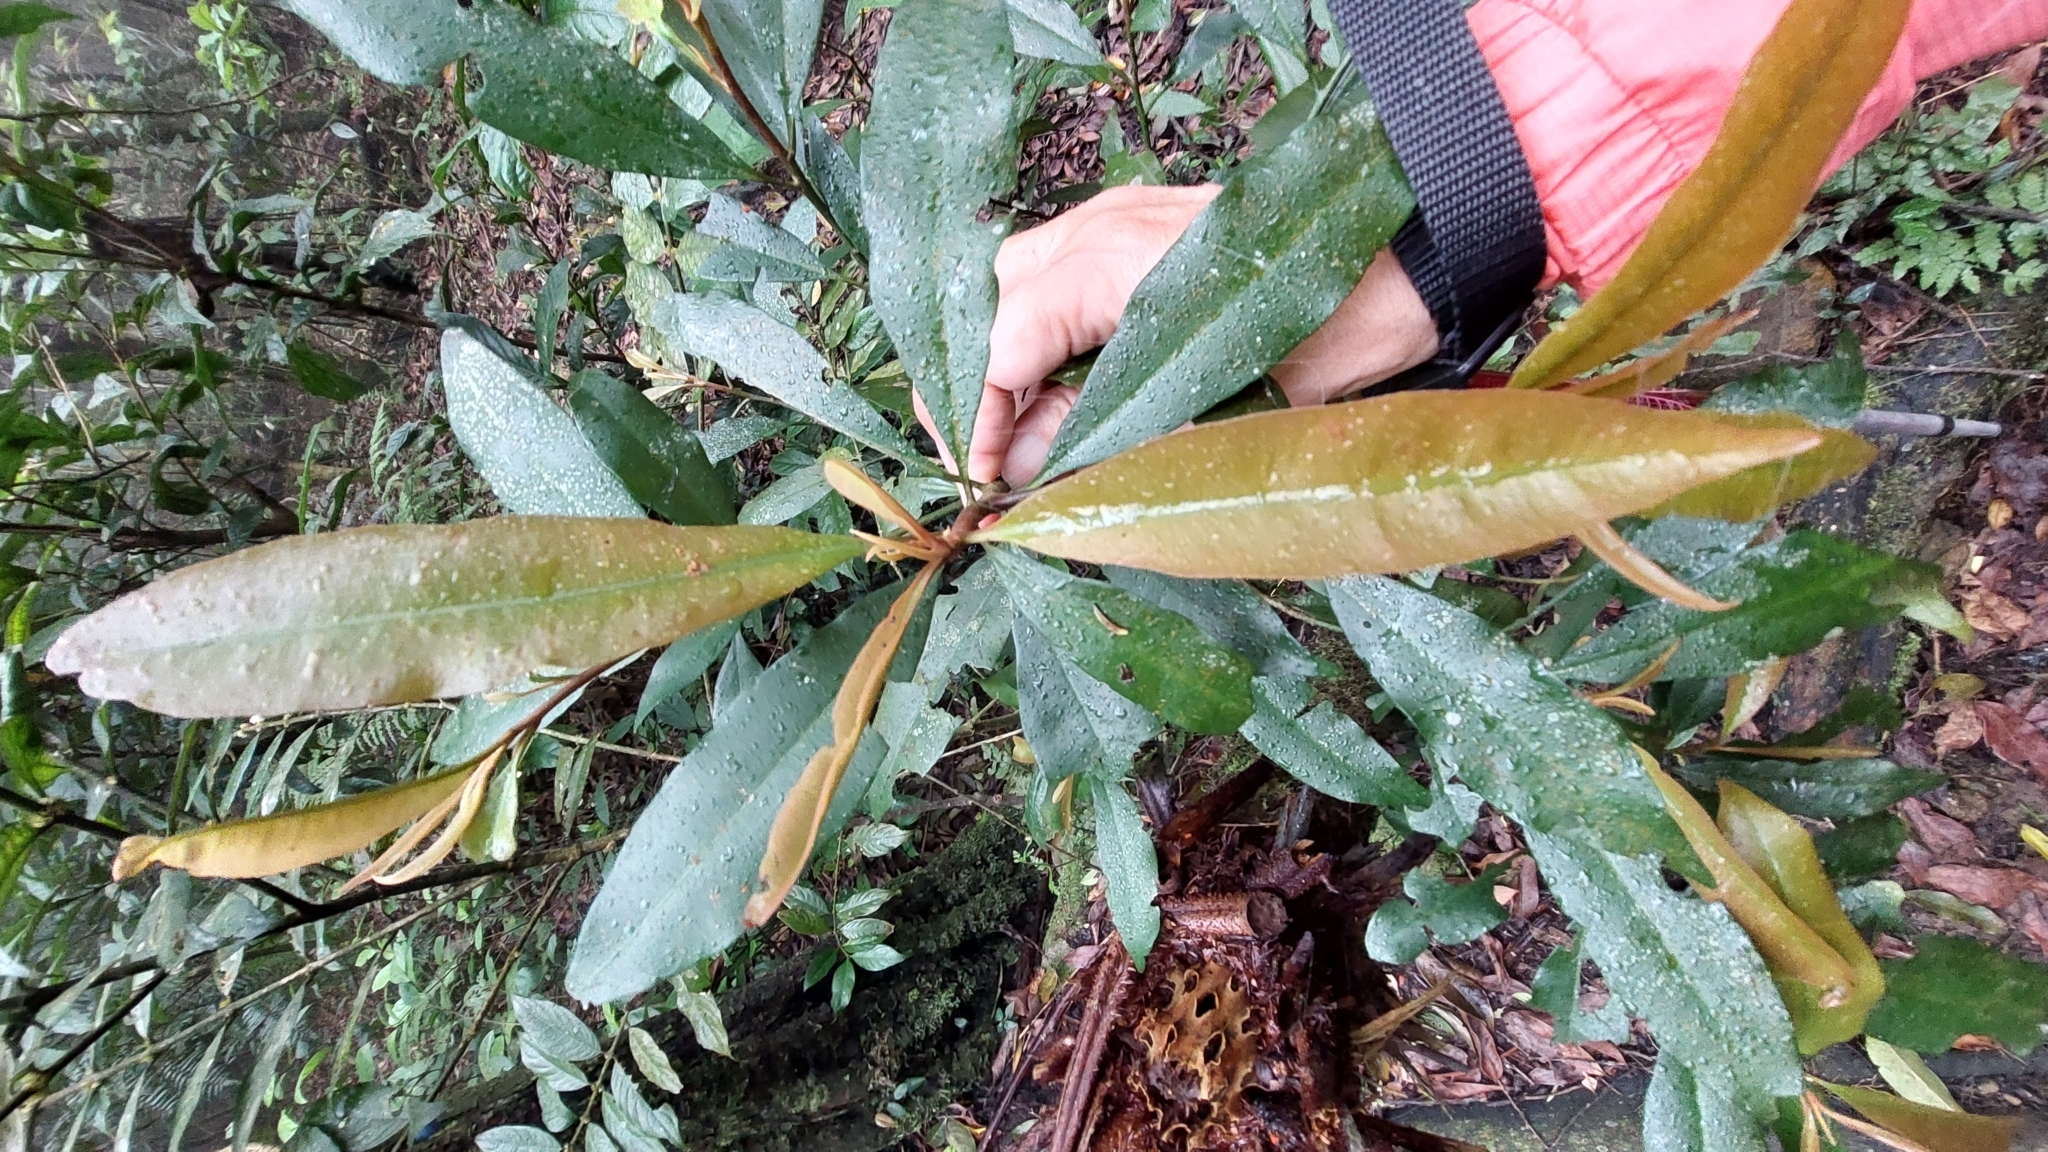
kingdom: Plantae
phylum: Tracheophyta
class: Magnoliopsida
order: Ericales
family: Primulaceae
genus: Ardisia
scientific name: Ardisia quinquegona
